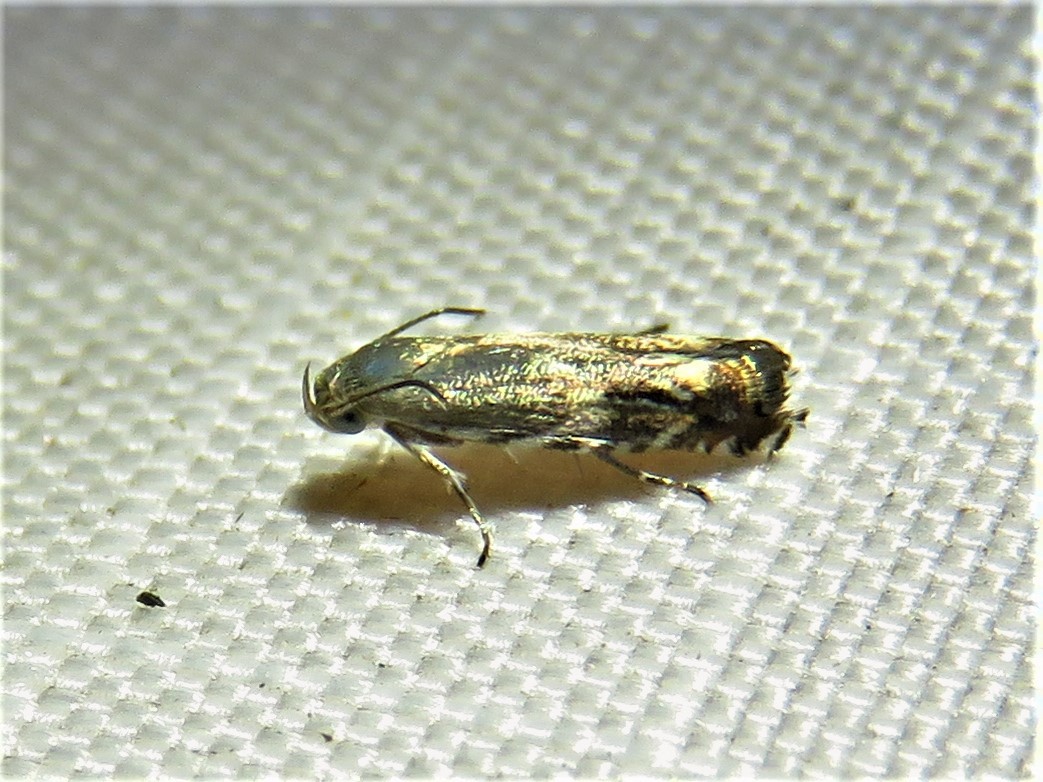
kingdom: Animalia
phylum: Arthropoda
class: Insecta
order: Lepidoptera
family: Gelechiidae
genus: Calliprora
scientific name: Calliprora sexstrigella
